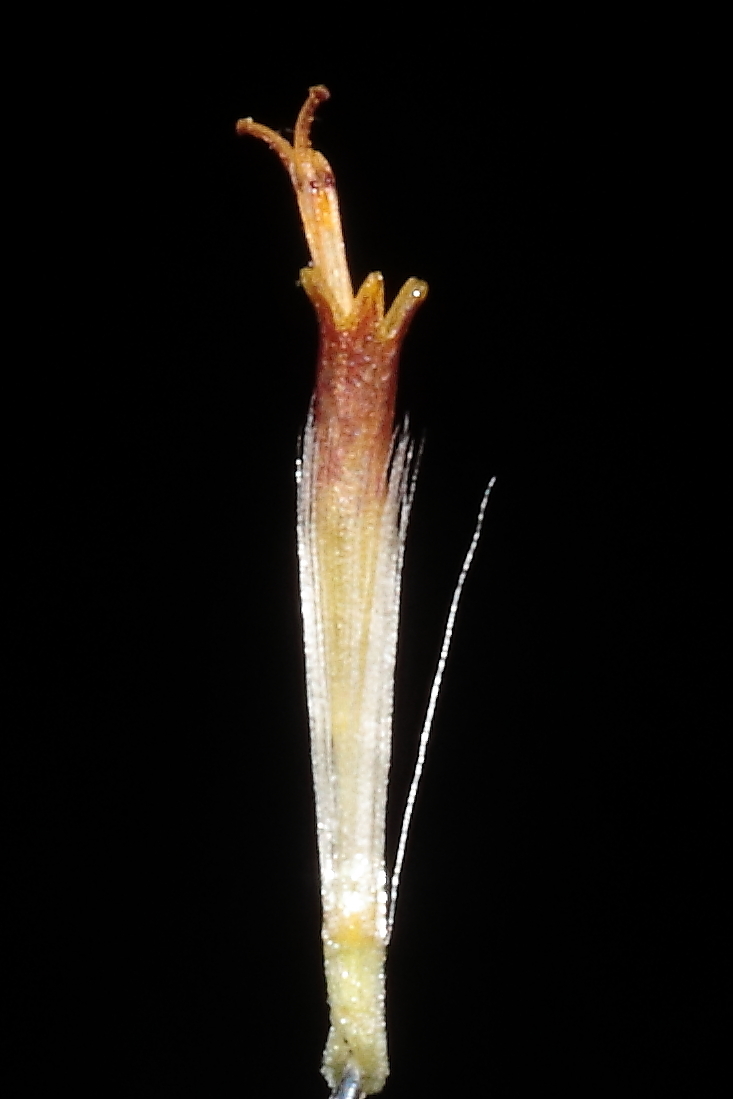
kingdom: Plantae
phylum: Tracheophyta
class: Magnoliopsida
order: Asterales
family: Asteraceae
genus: Senecio
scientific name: Senecio adenophyllus
